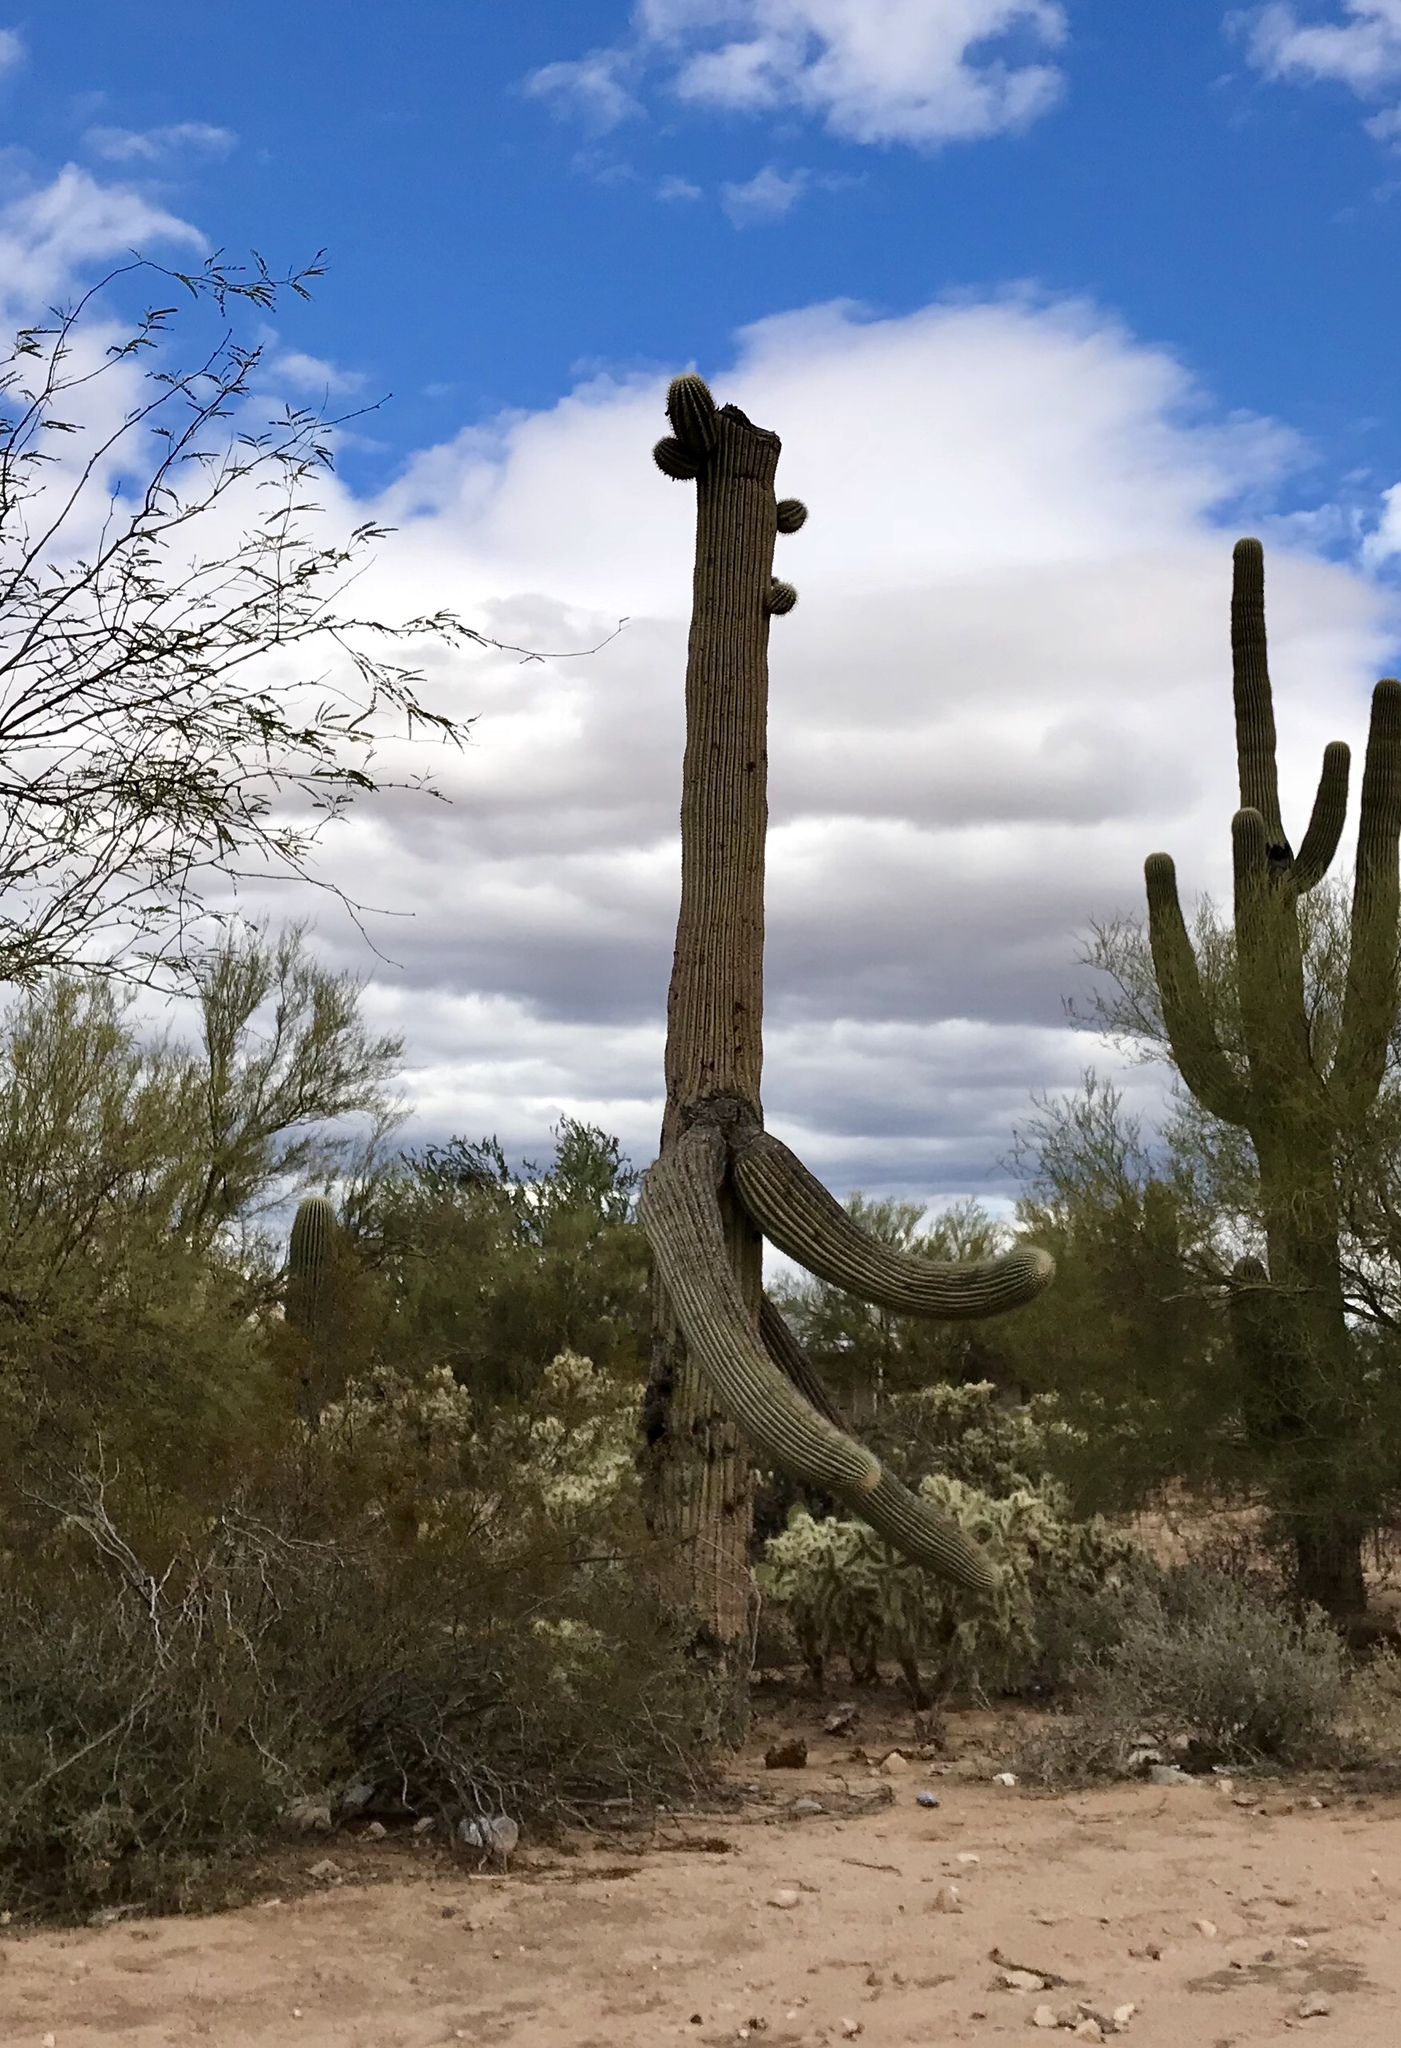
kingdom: Plantae
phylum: Tracheophyta
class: Magnoliopsida
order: Caryophyllales
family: Cactaceae
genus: Carnegiea
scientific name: Carnegiea gigantea
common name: Saguaro
